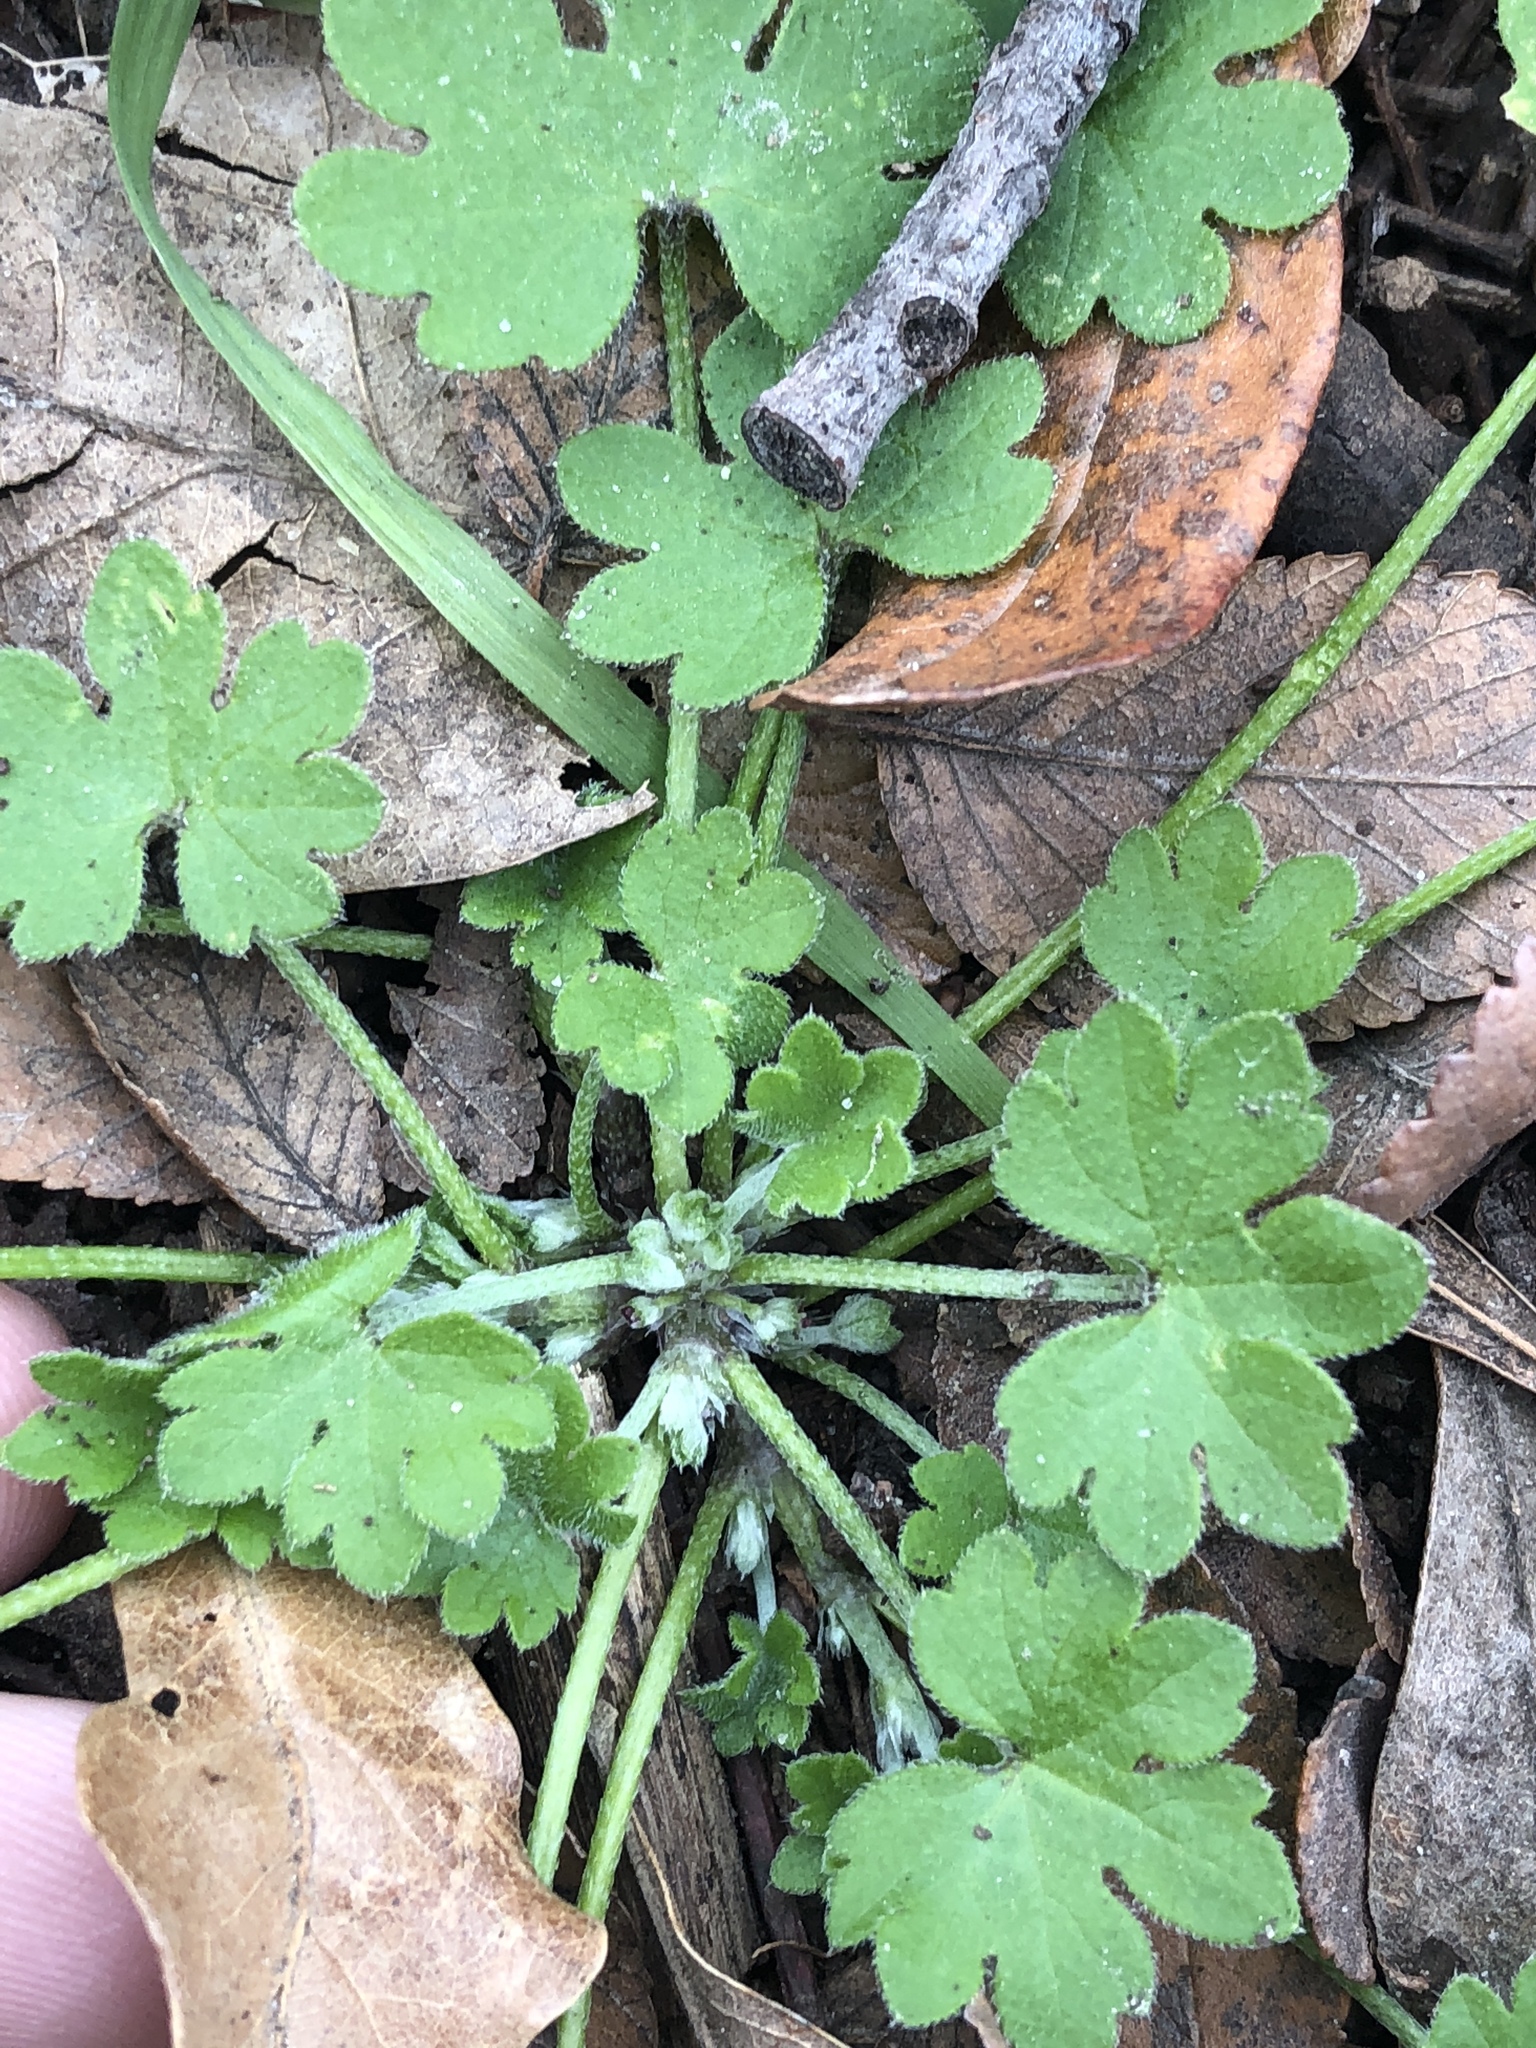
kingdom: Plantae
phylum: Tracheophyta
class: Magnoliopsida
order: Apiales
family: Apiaceae
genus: Bowlesia
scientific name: Bowlesia incana
